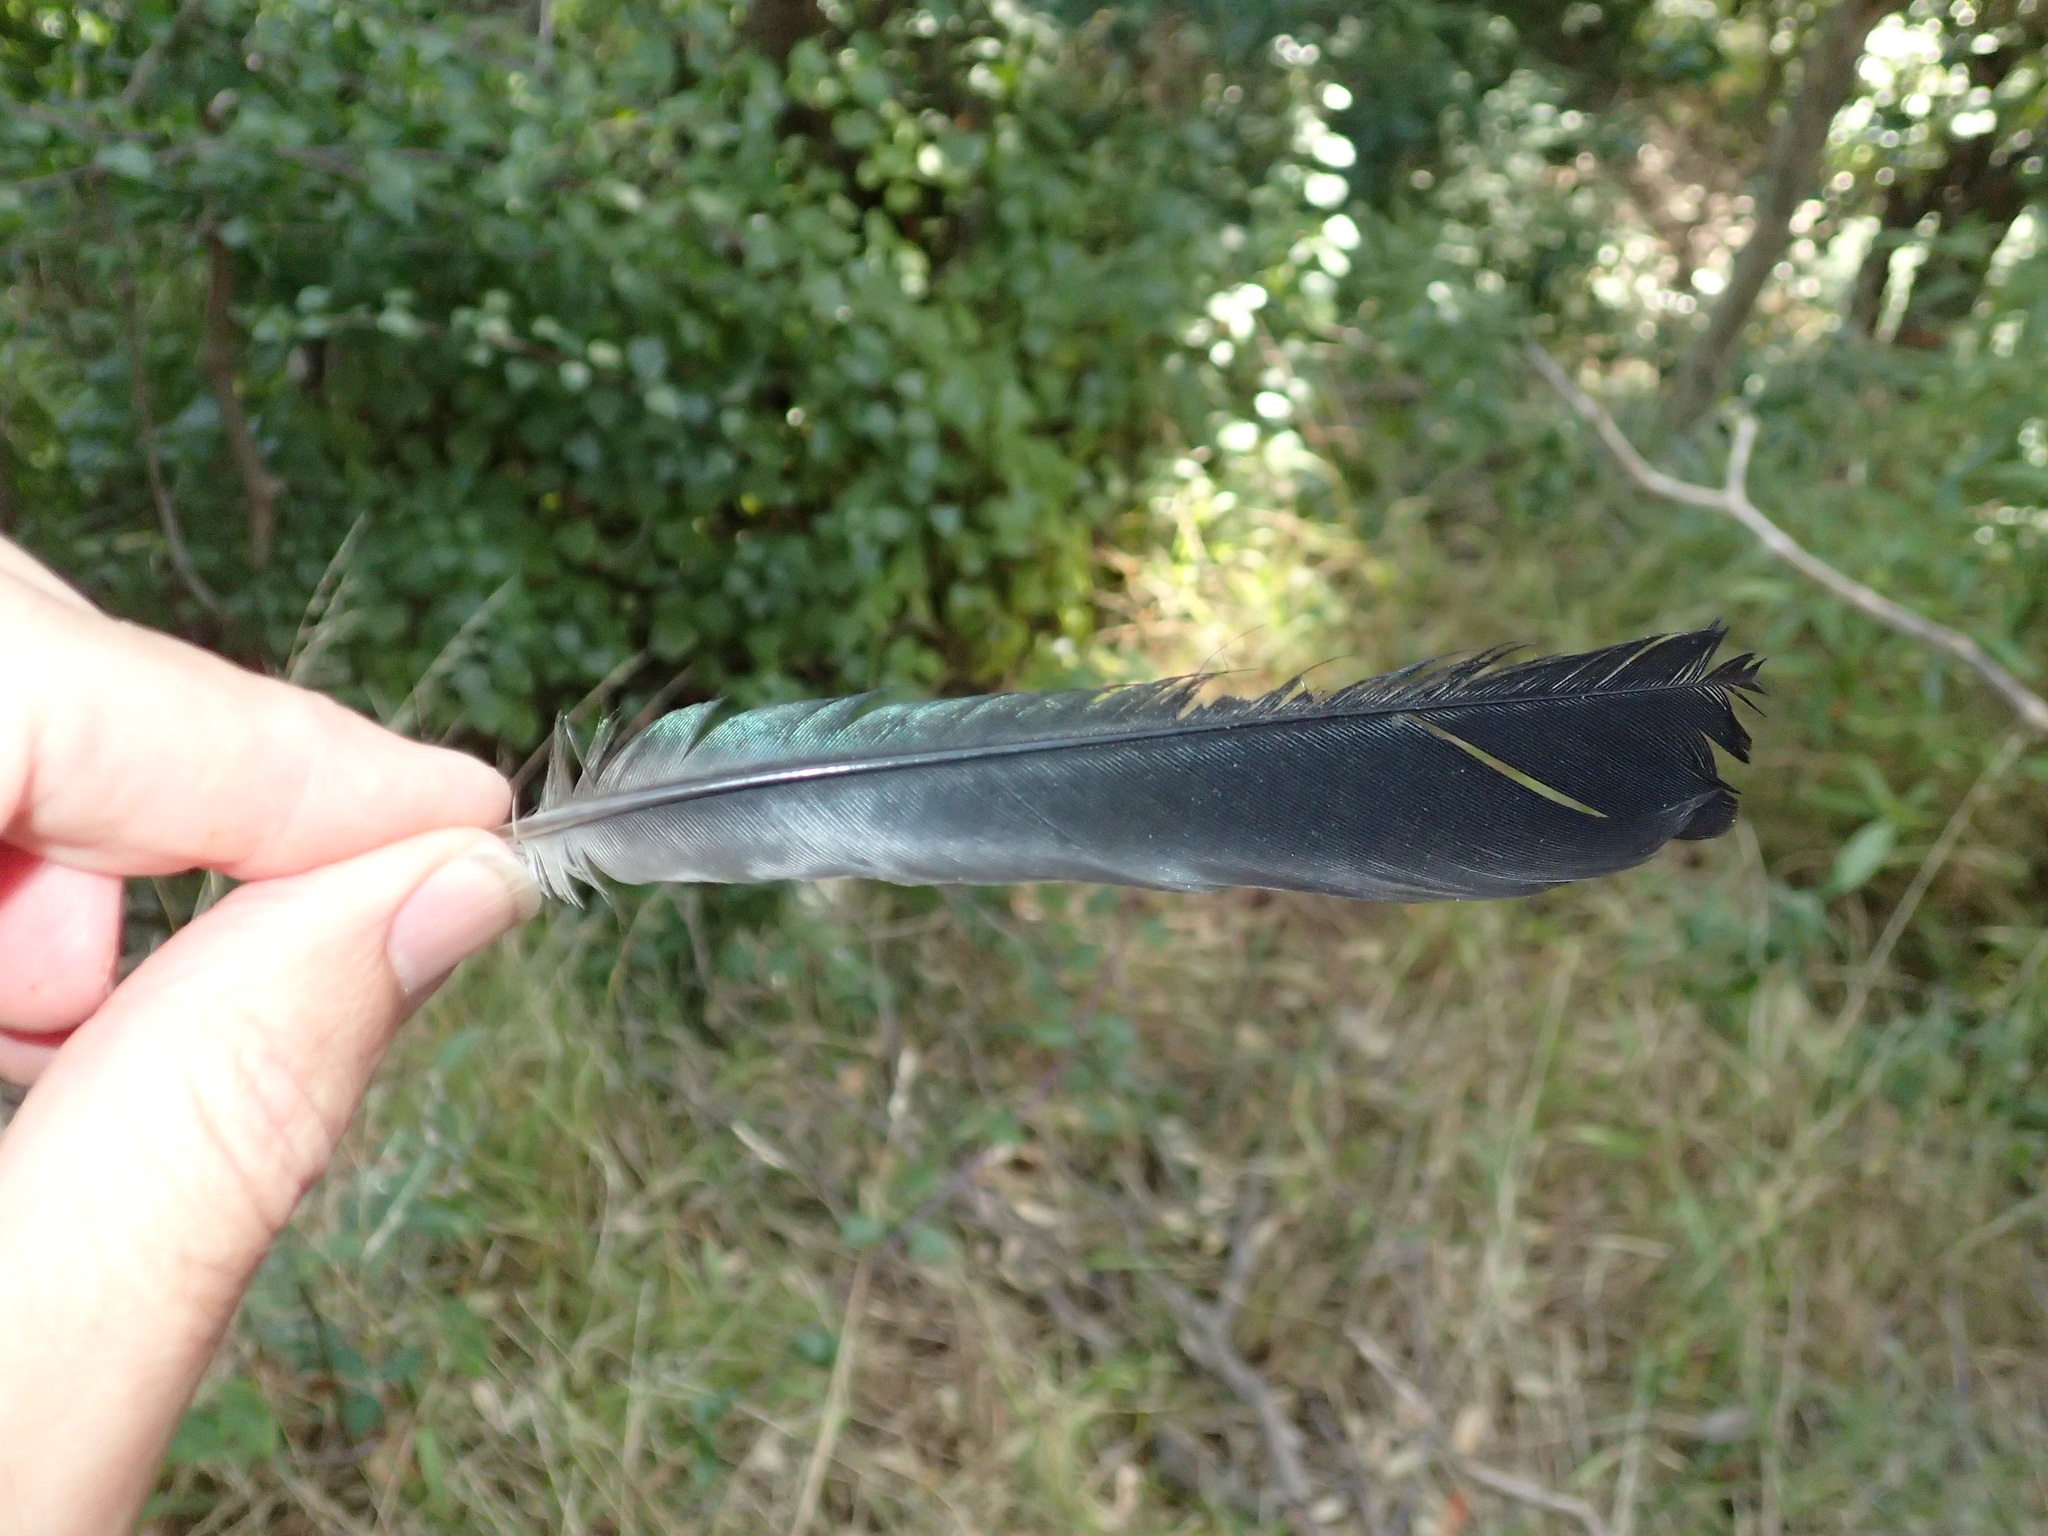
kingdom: Animalia
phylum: Chordata
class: Aves
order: Passeriformes
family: Meliphagidae
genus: Prosthemadera
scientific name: Prosthemadera novaeseelandiae
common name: Tui
